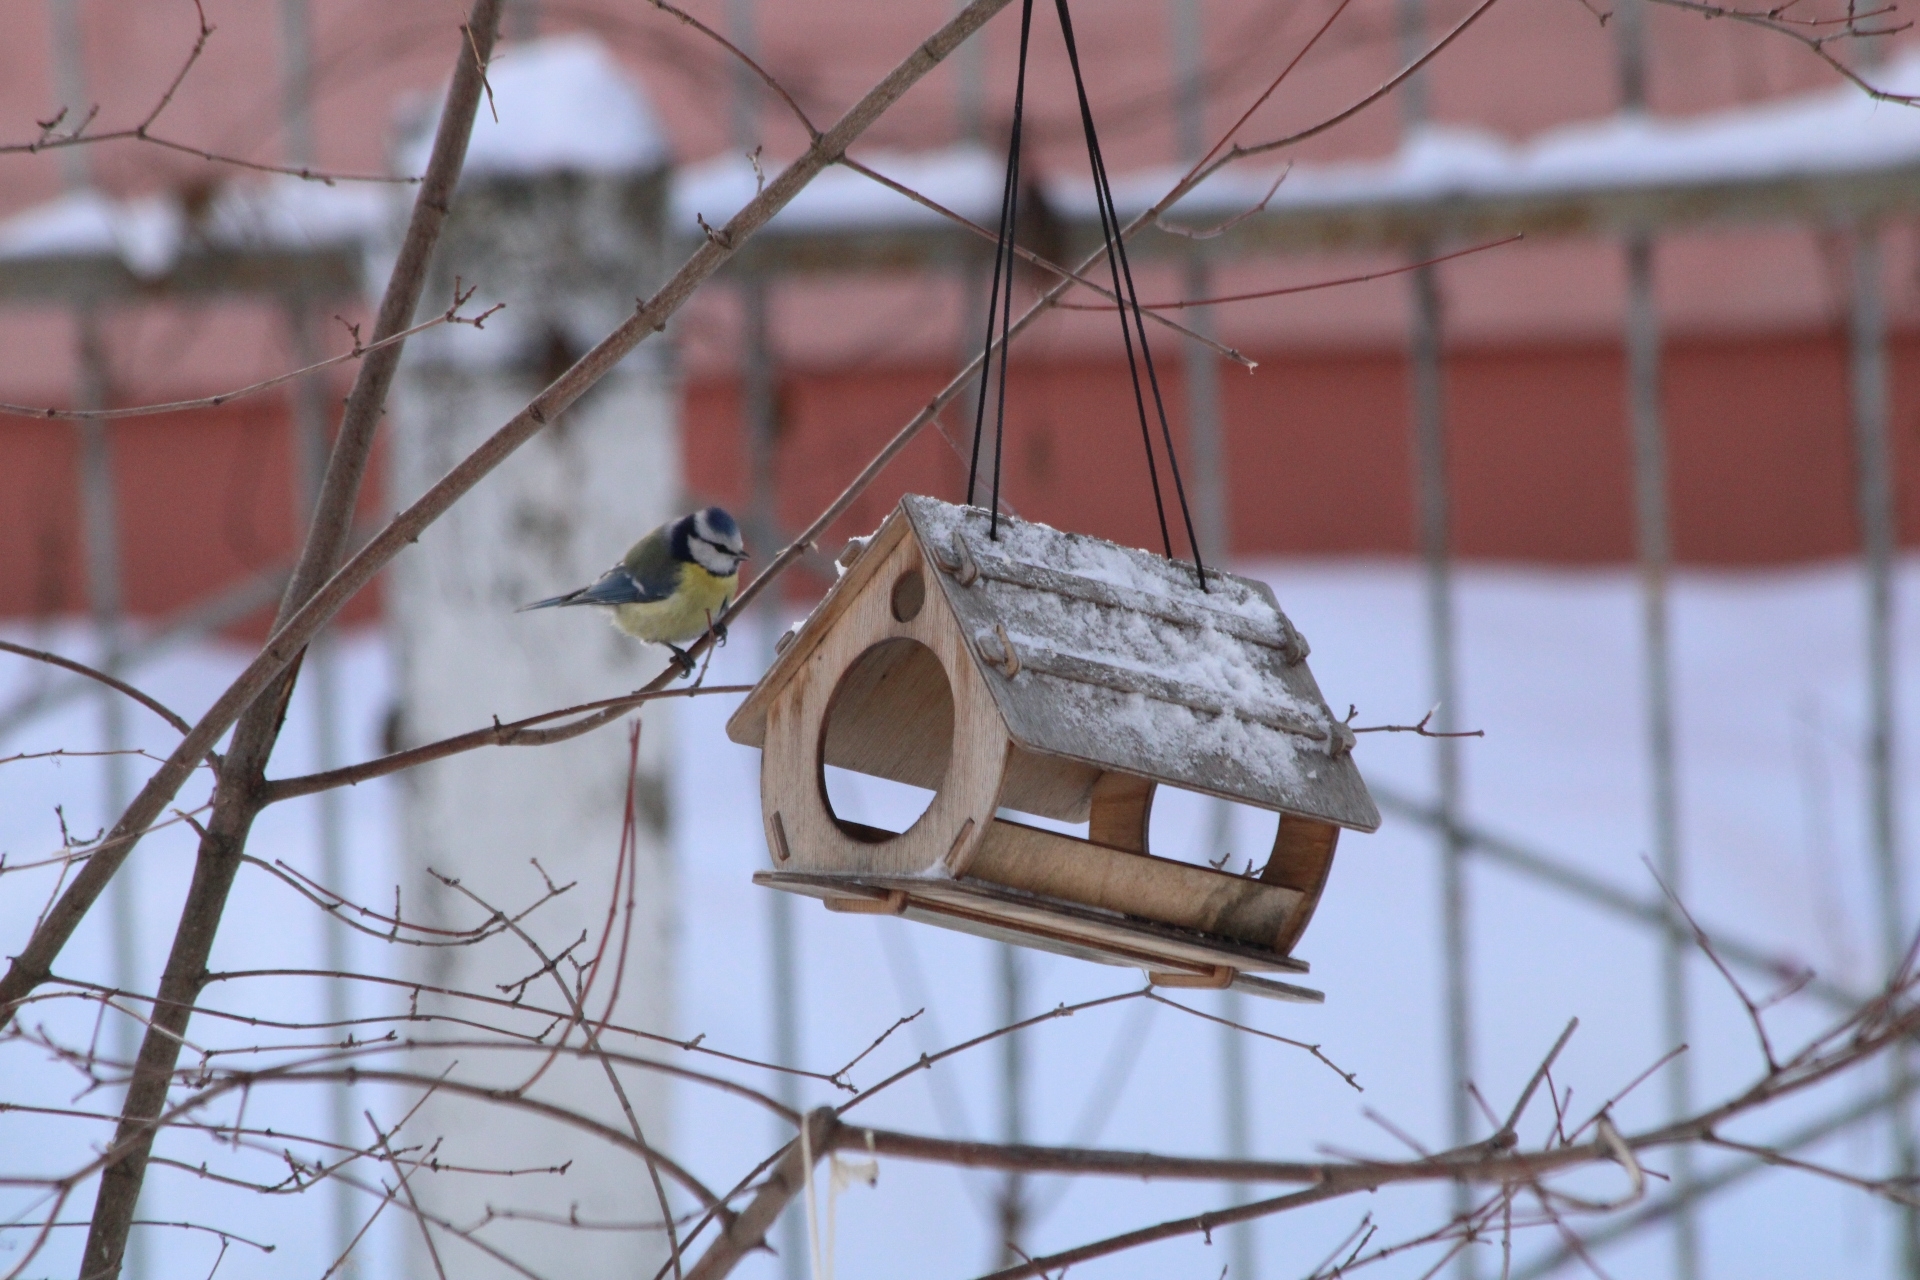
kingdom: Animalia
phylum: Chordata
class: Aves
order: Passeriformes
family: Paridae
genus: Cyanistes
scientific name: Cyanistes caeruleus
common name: Eurasian blue tit
